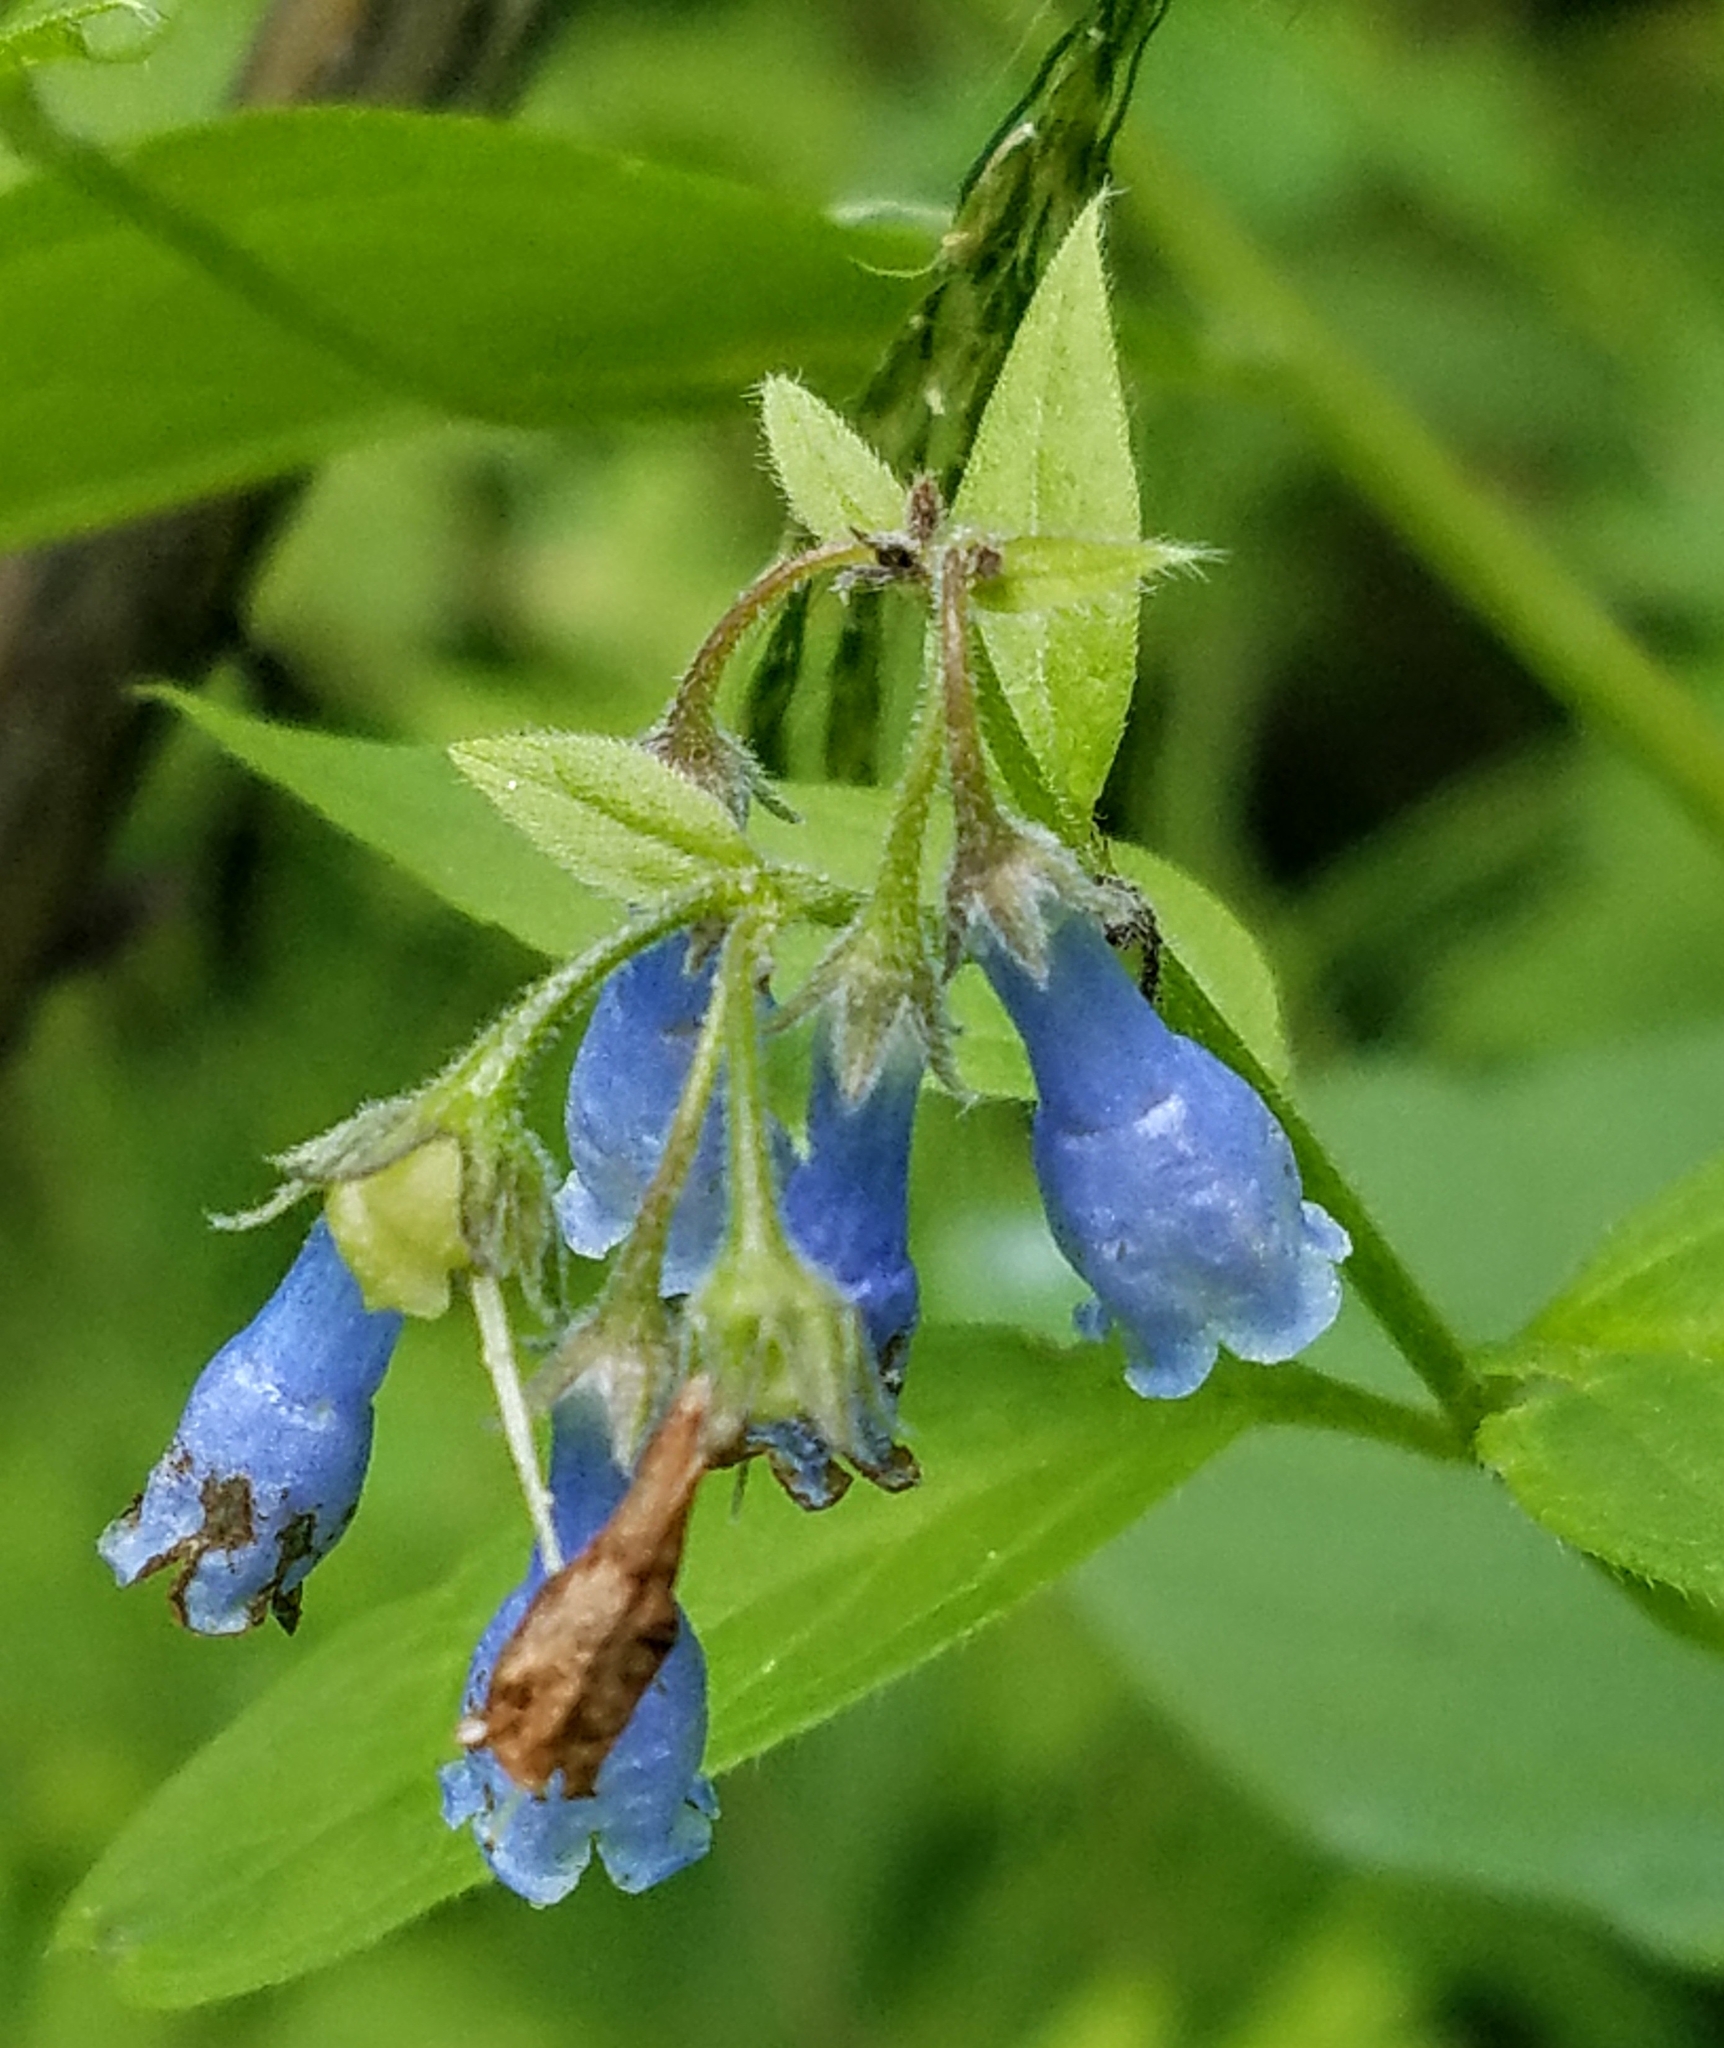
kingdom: Plantae
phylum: Tracheophyta
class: Magnoliopsida
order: Boraginales
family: Boraginaceae
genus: Mertensia
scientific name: Mertensia paniculata
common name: Panicled bluebells
